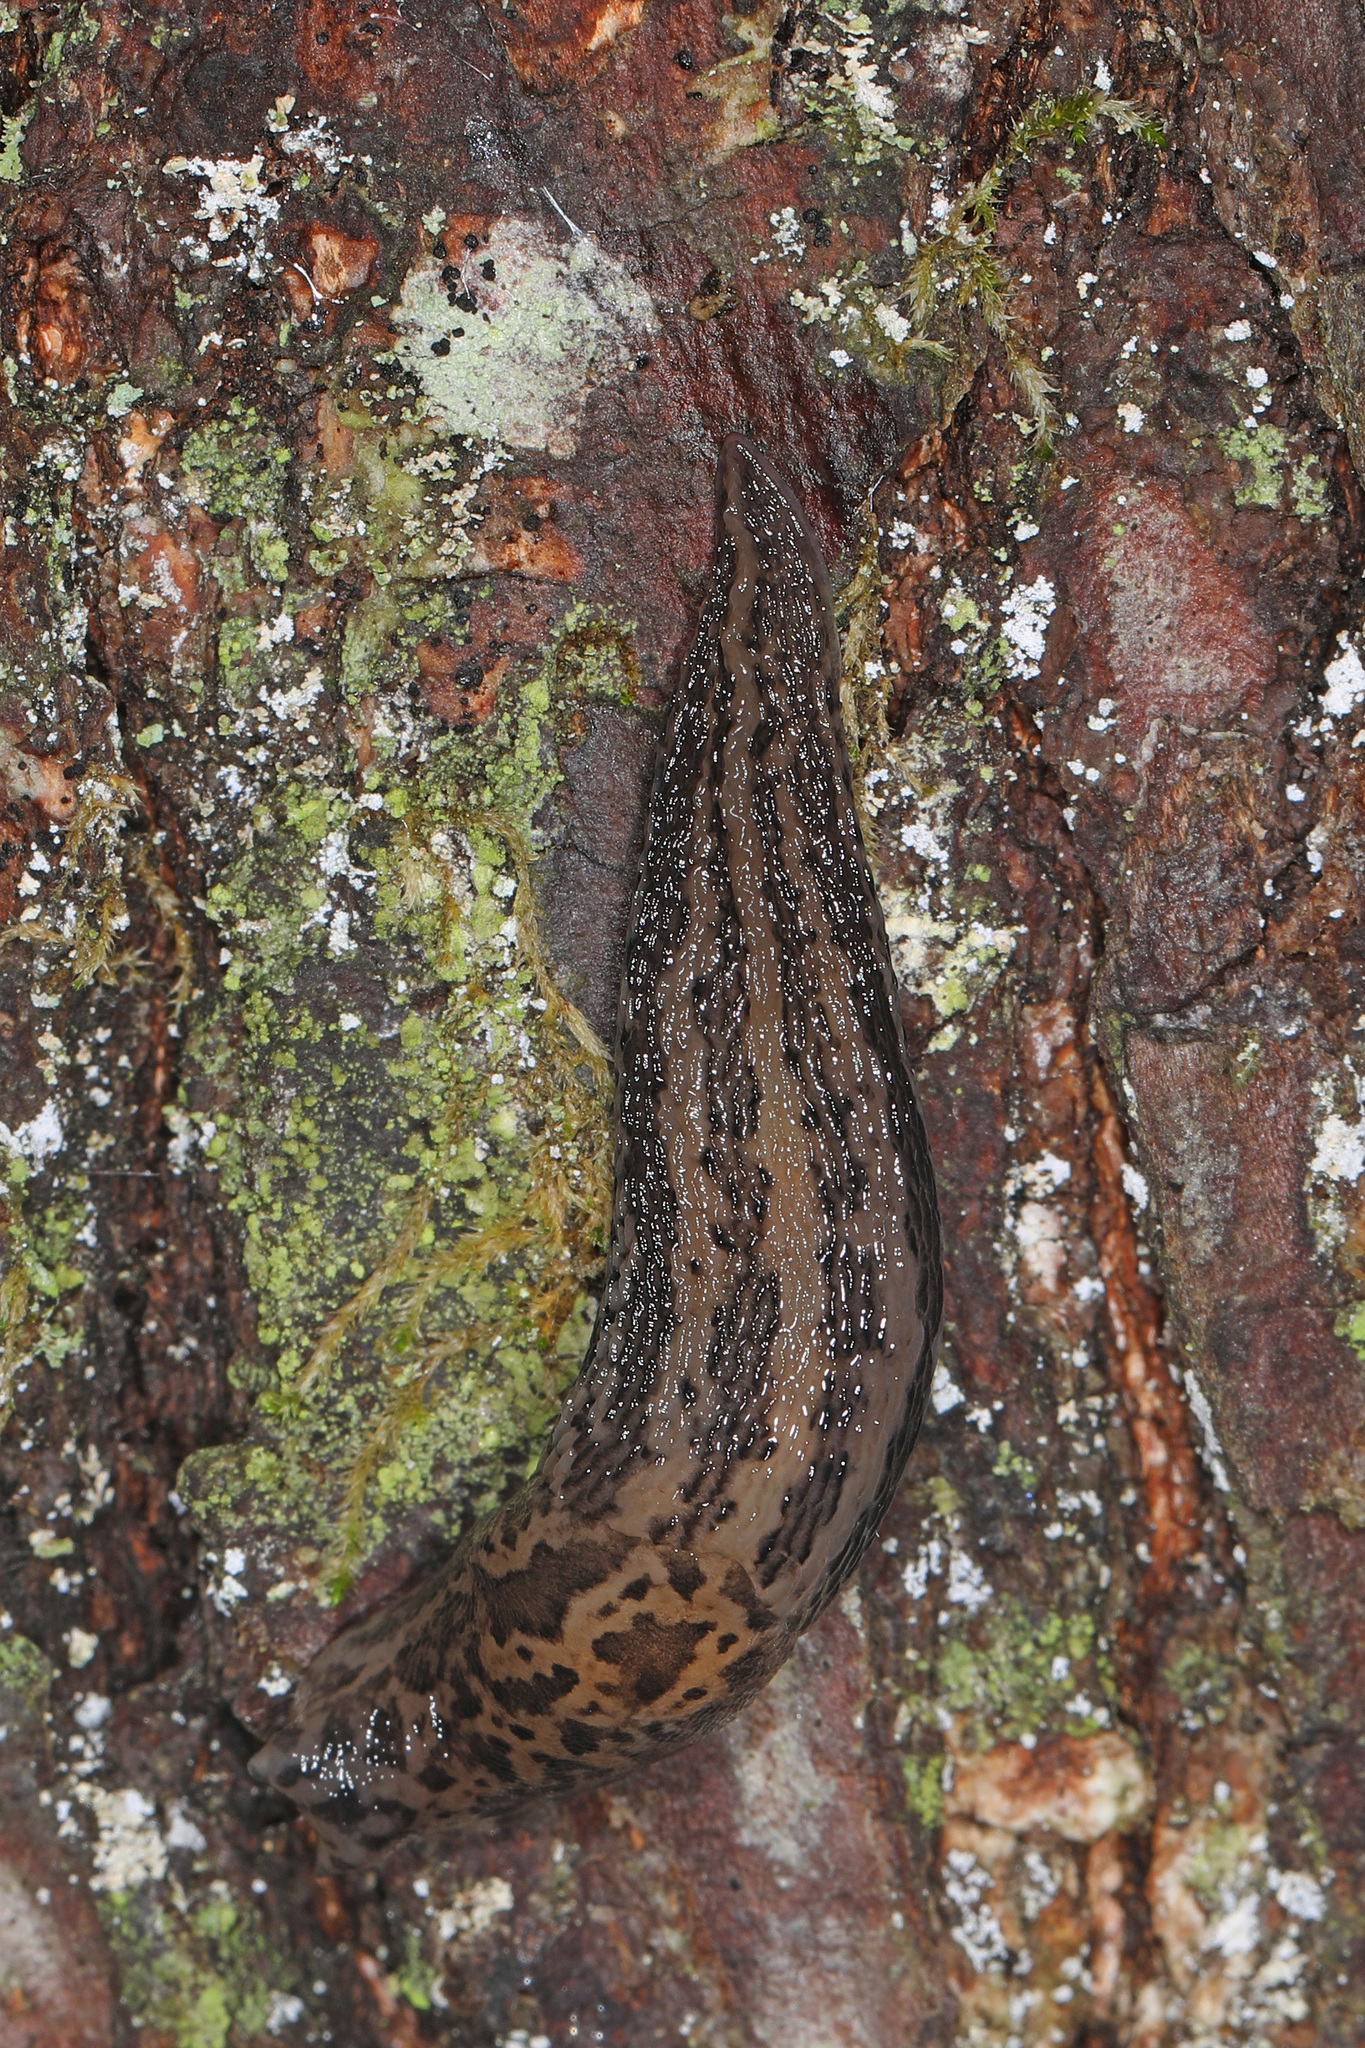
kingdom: Animalia
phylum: Mollusca
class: Gastropoda
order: Stylommatophora
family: Limacidae
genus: Limax
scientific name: Limax maximus
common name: Great grey slug
